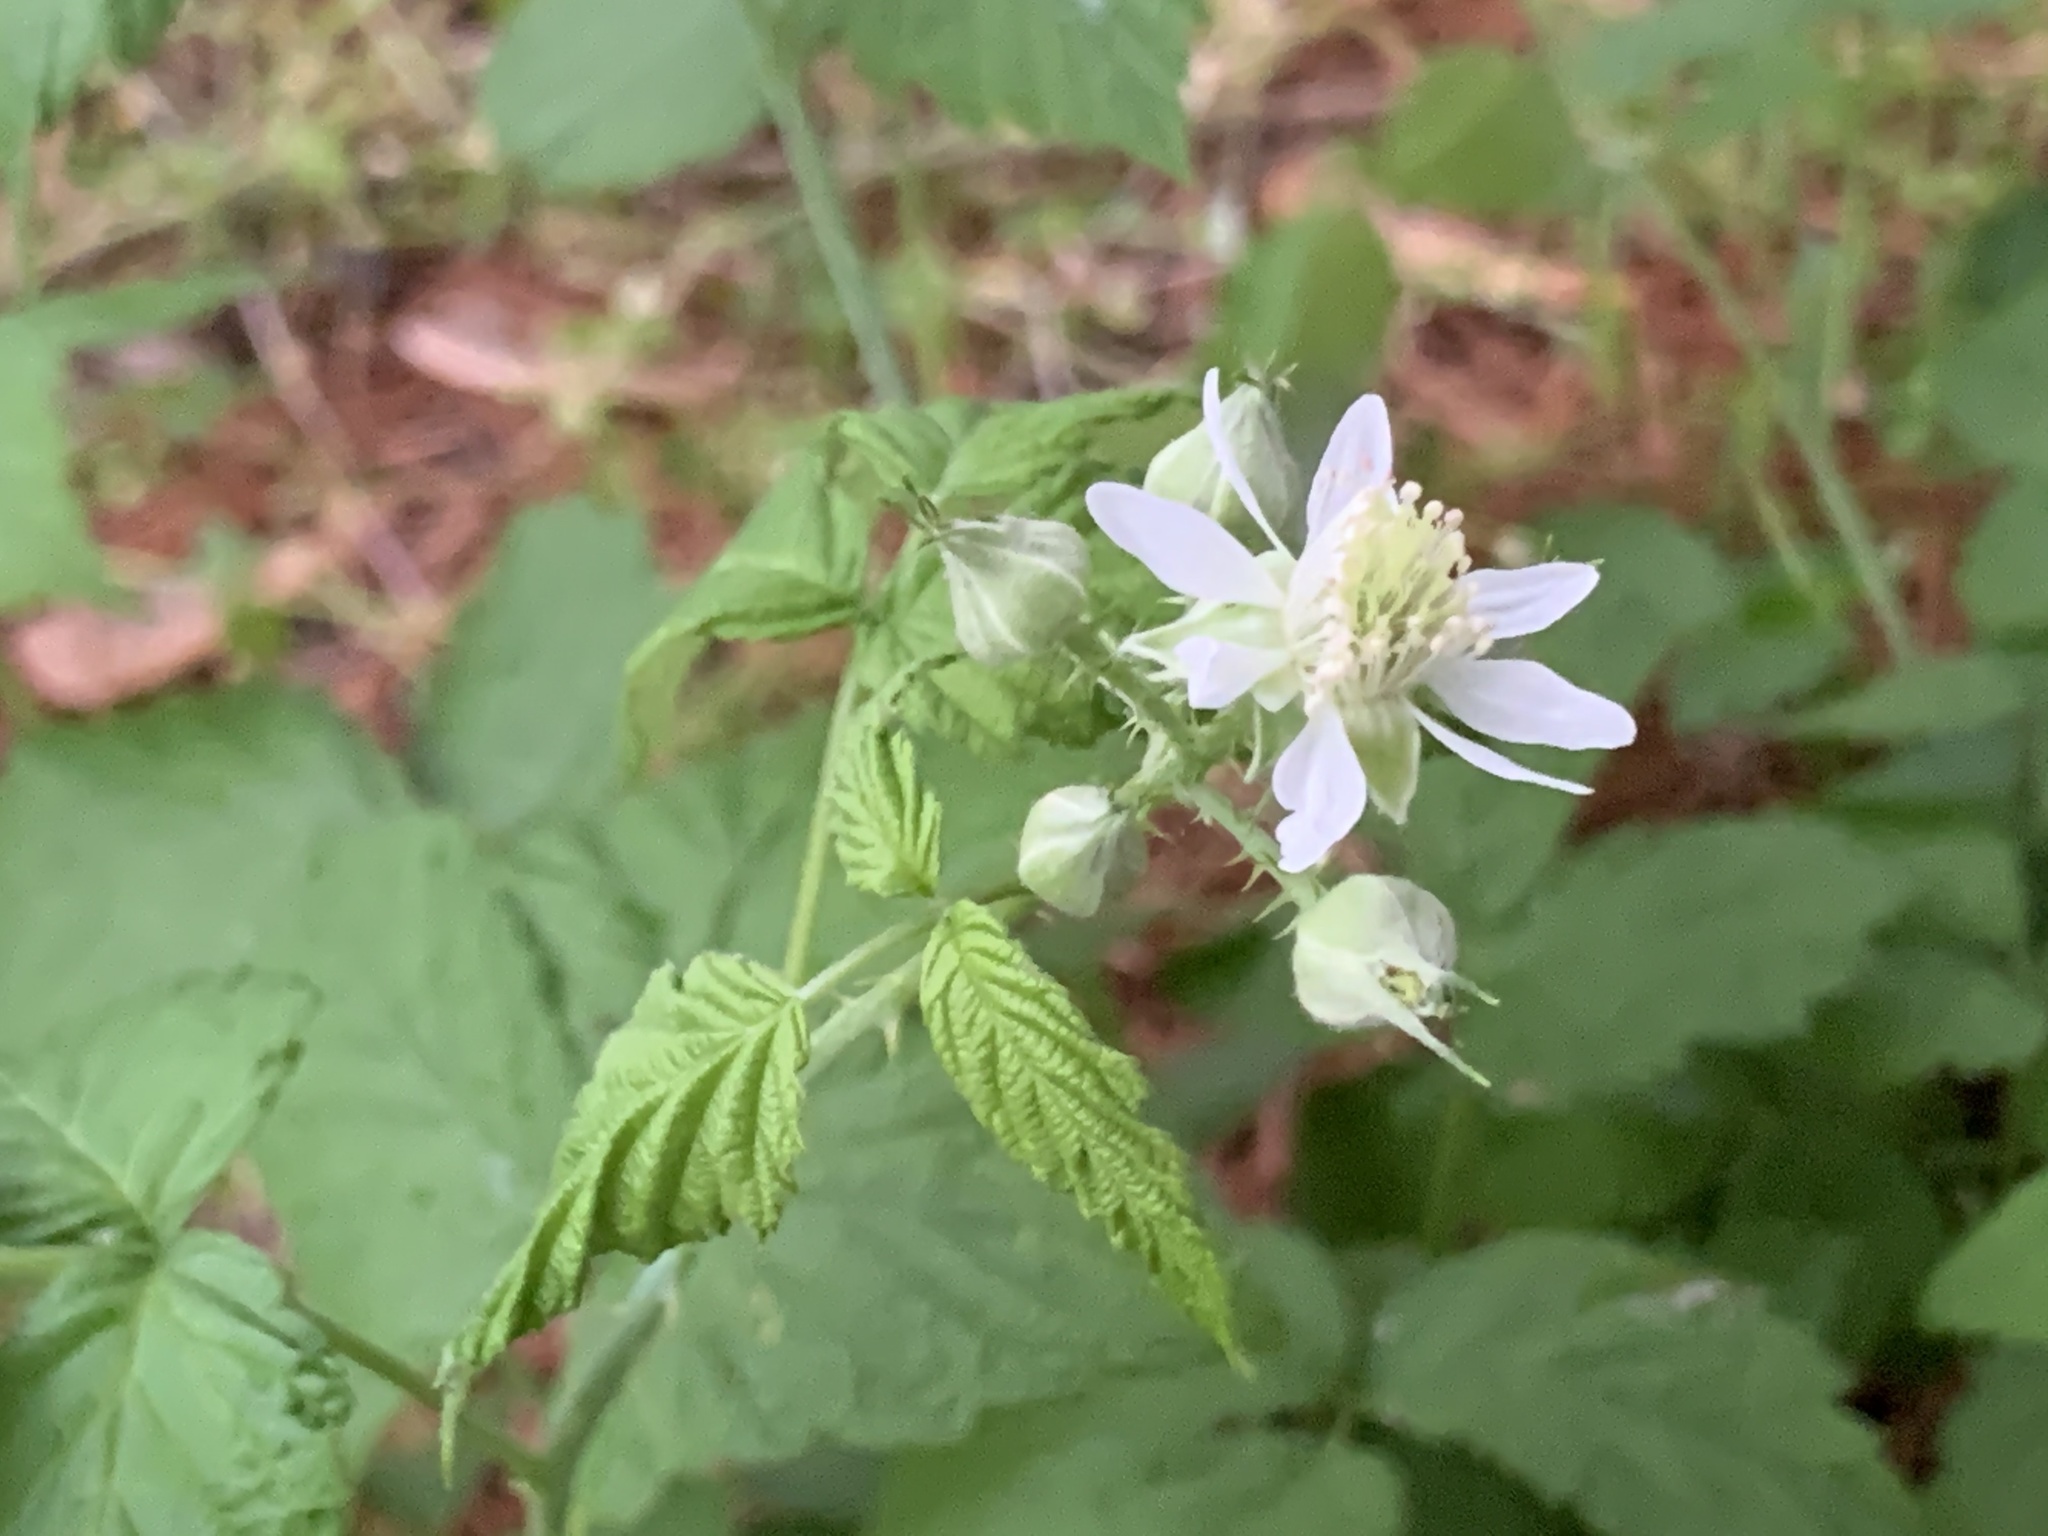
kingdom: Plantae
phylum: Tracheophyta
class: Magnoliopsida
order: Rosales
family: Rosaceae
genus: Rubus
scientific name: Rubus occidentalis
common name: Black raspberry
